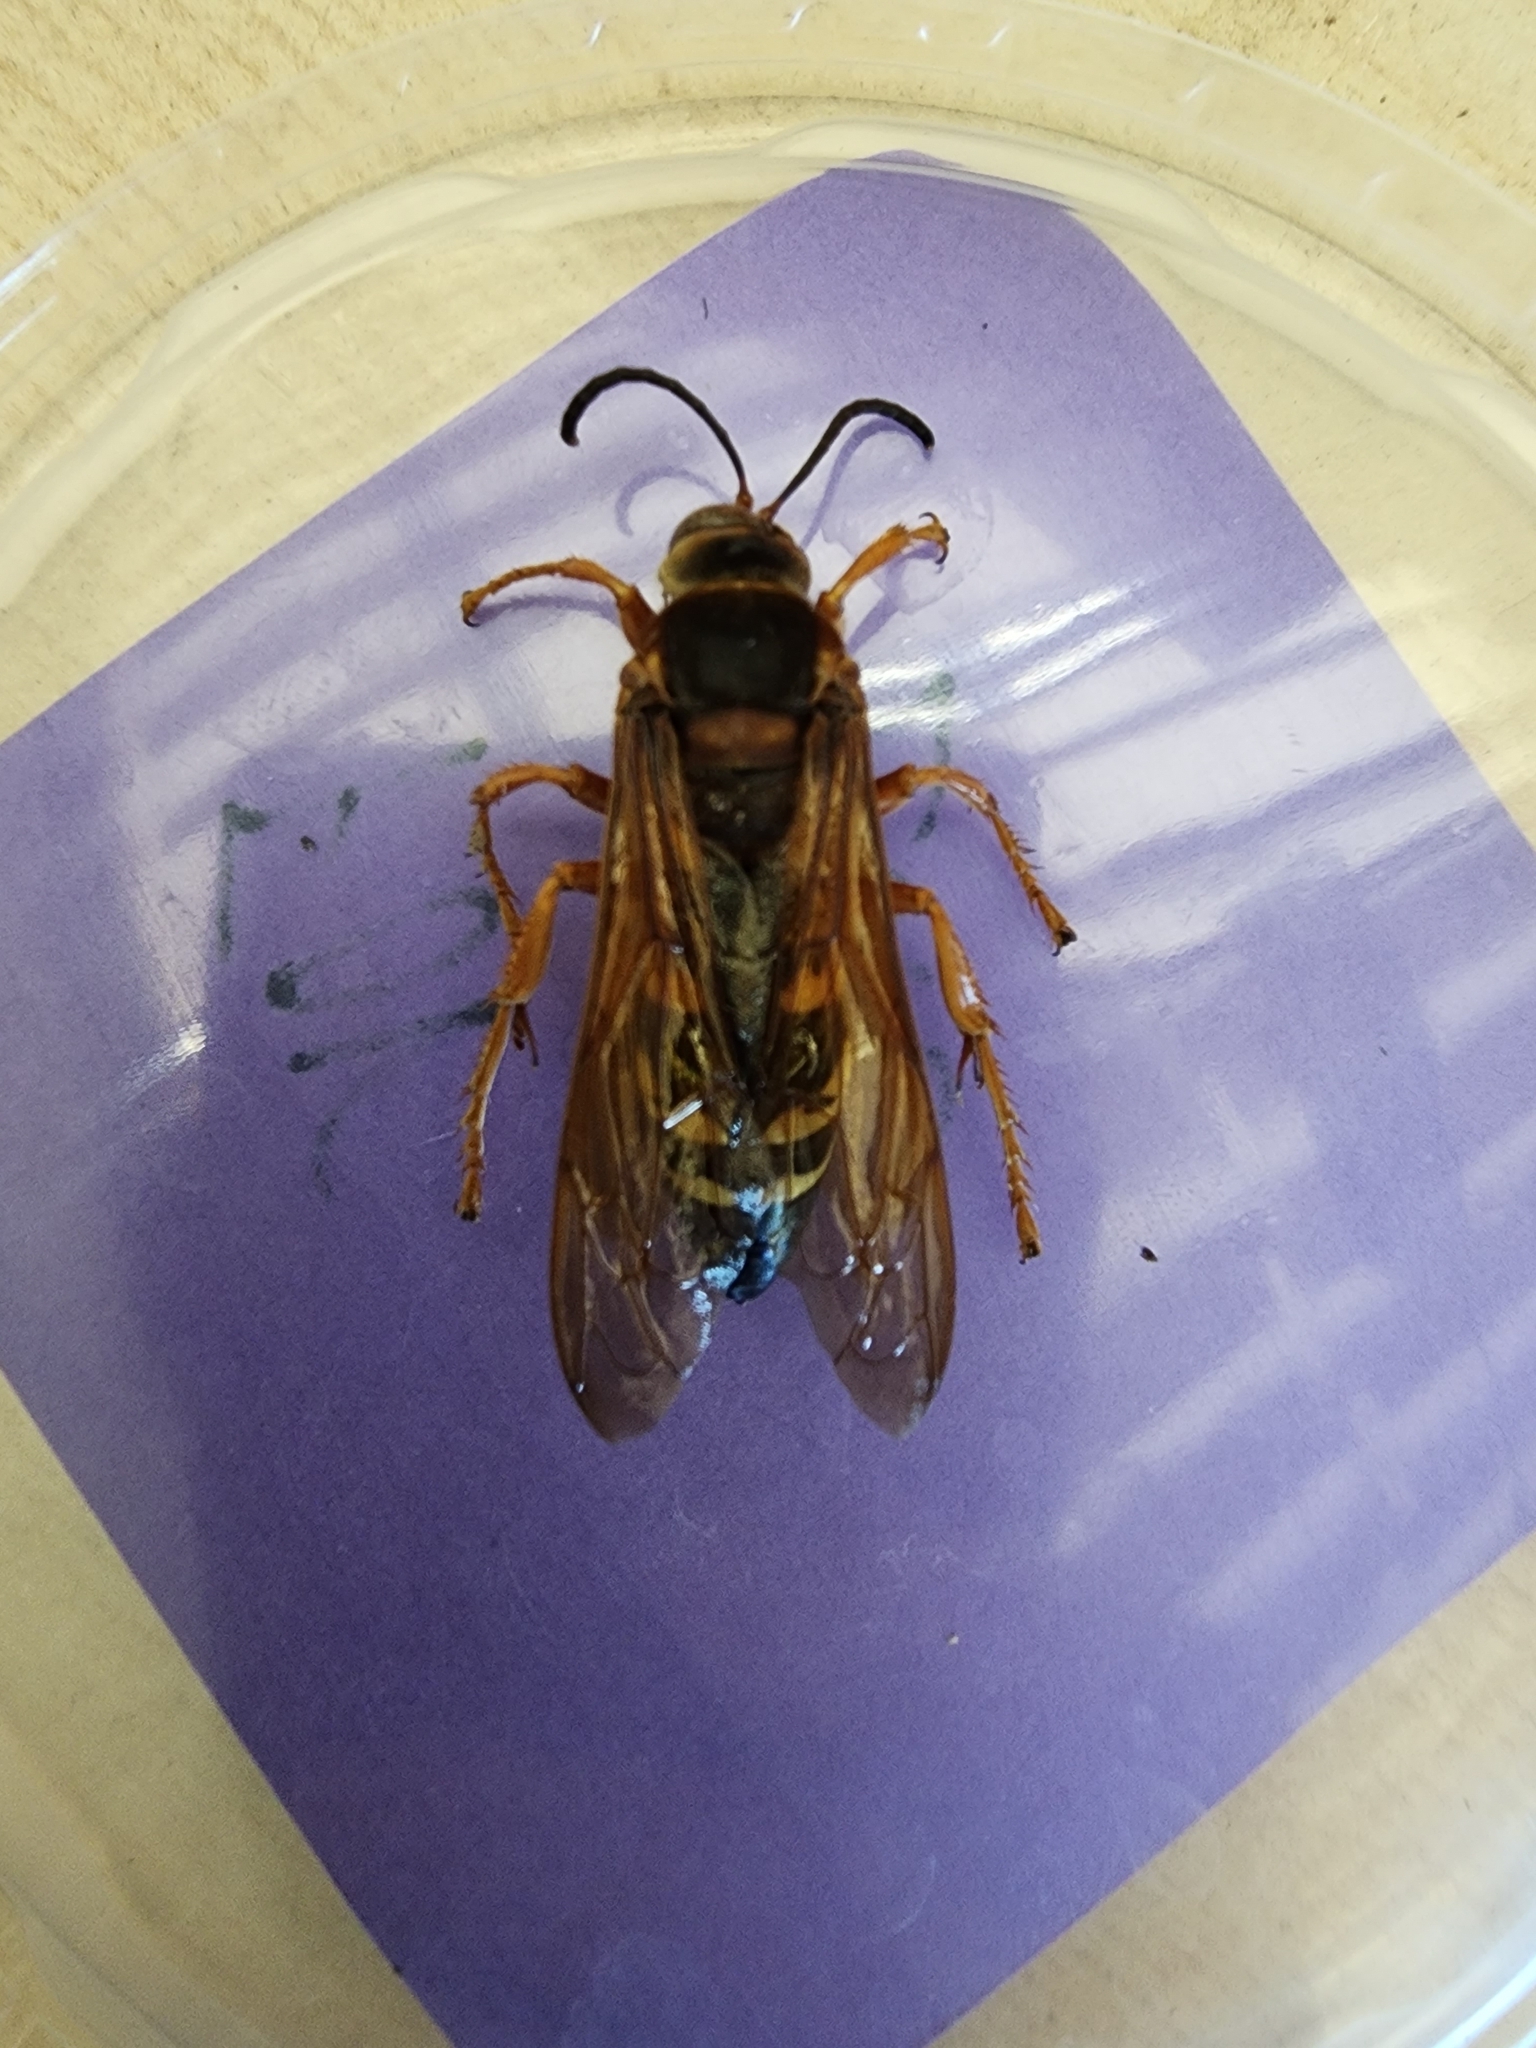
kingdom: Animalia
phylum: Arthropoda
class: Insecta
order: Hymenoptera
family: Crabronidae
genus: Sphecius
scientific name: Sphecius speciosus
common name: Cicada killer
